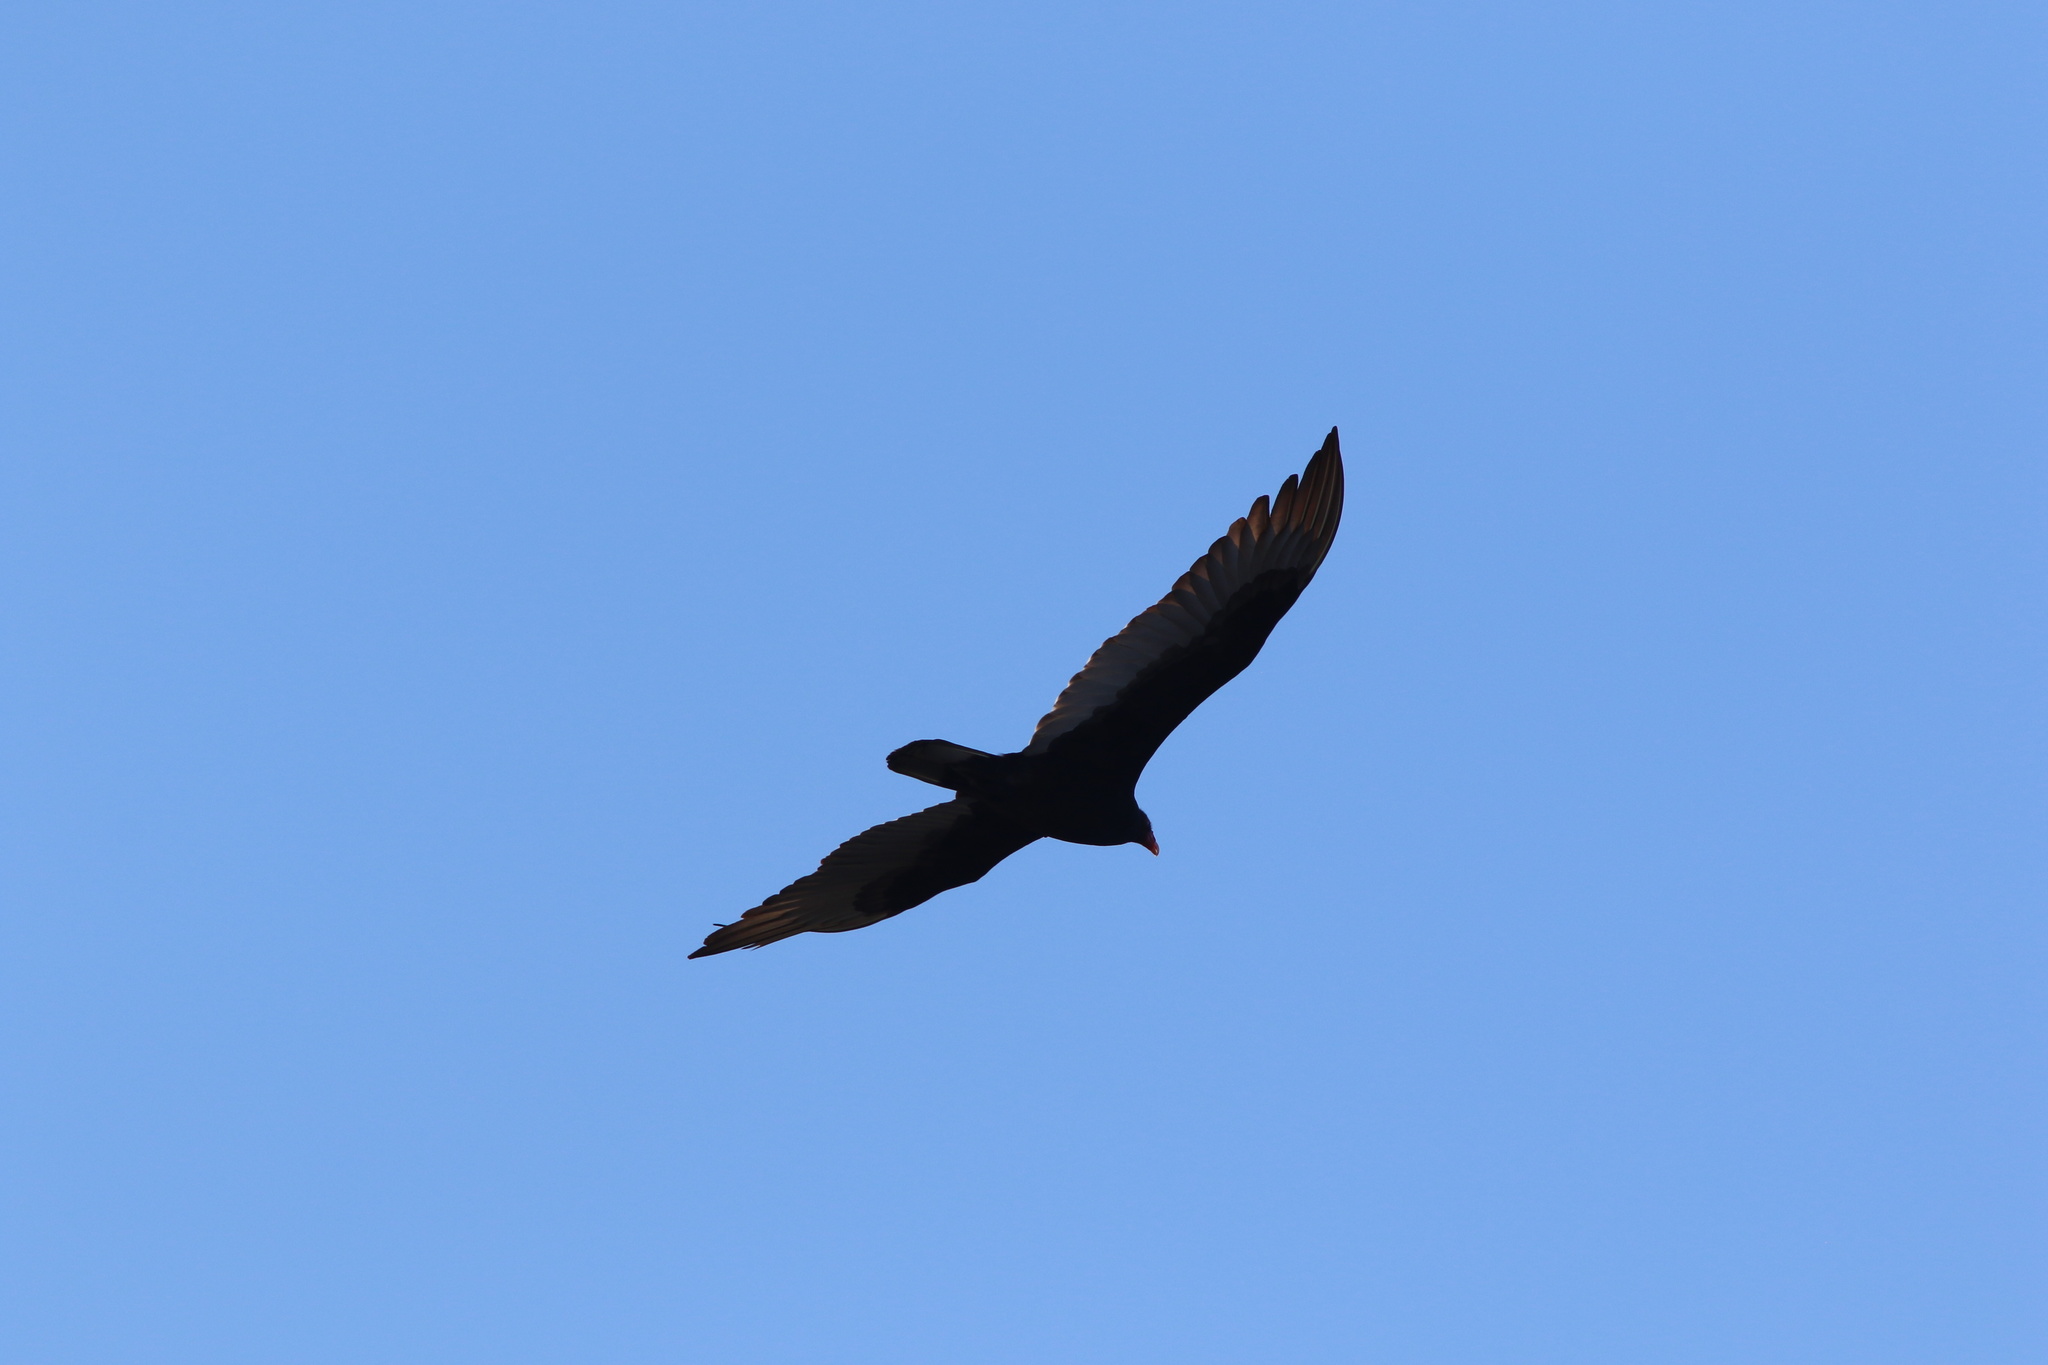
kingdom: Animalia
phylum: Chordata
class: Aves
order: Accipitriformes
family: Cathartidae
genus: Cathartes
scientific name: Cathartes aura
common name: Turkey vulture
